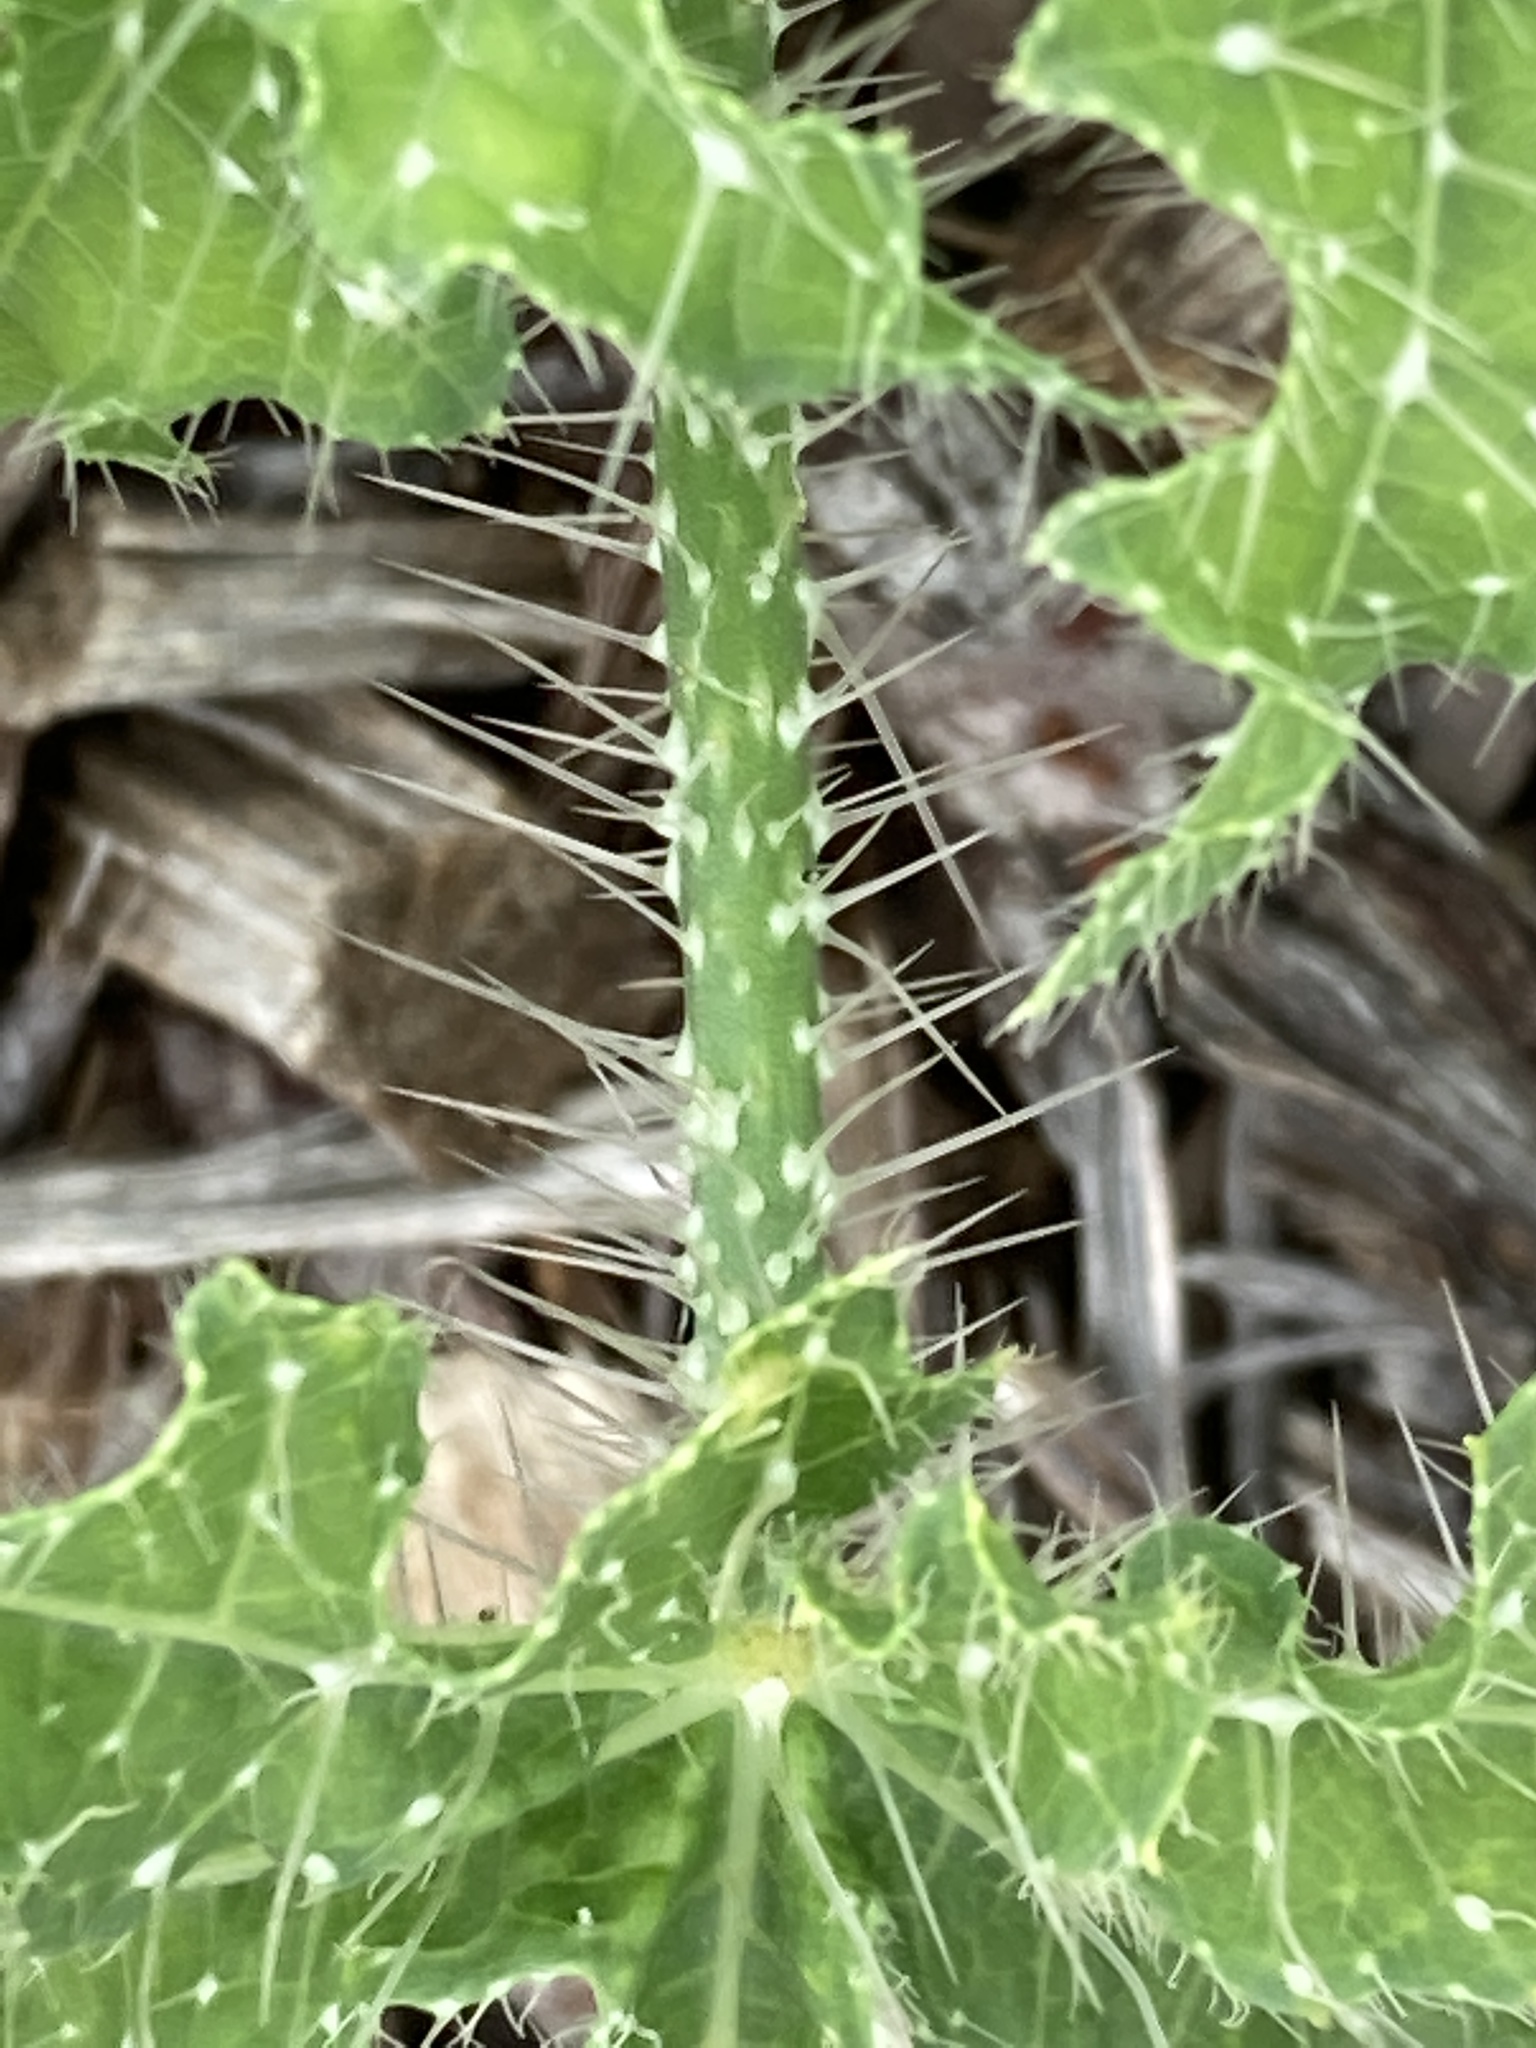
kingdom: Plantae
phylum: Tracheophyta
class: Magnoliopsida
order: Malpighiales
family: Euphorbiaceae
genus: Cnidoscolus
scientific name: Cnidoscolus texanus
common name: Texas bull-nettle
